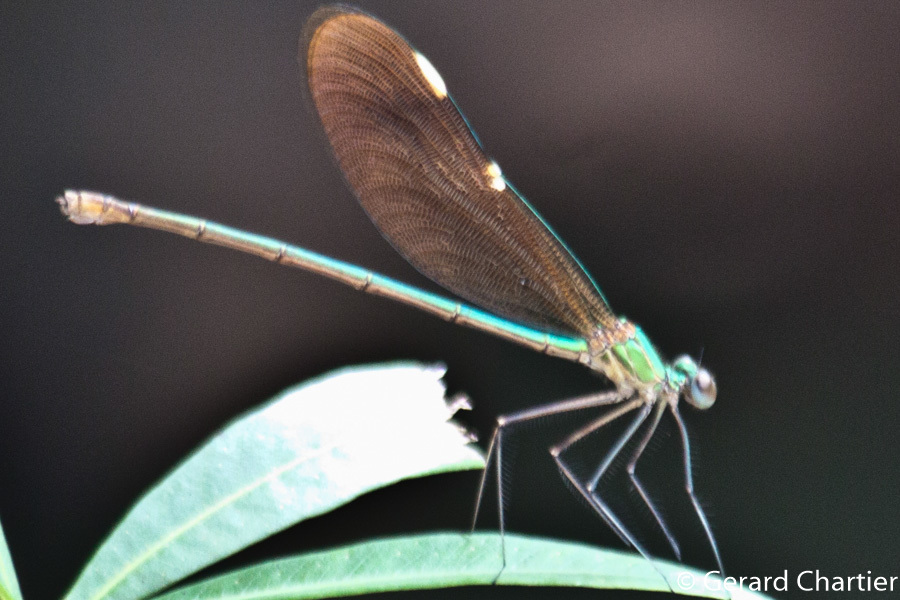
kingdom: Animalia
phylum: Arthropoda
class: Insecta
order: Odonata
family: Calopterygidae
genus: Neurobasis
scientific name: Neurobasis chinensis
